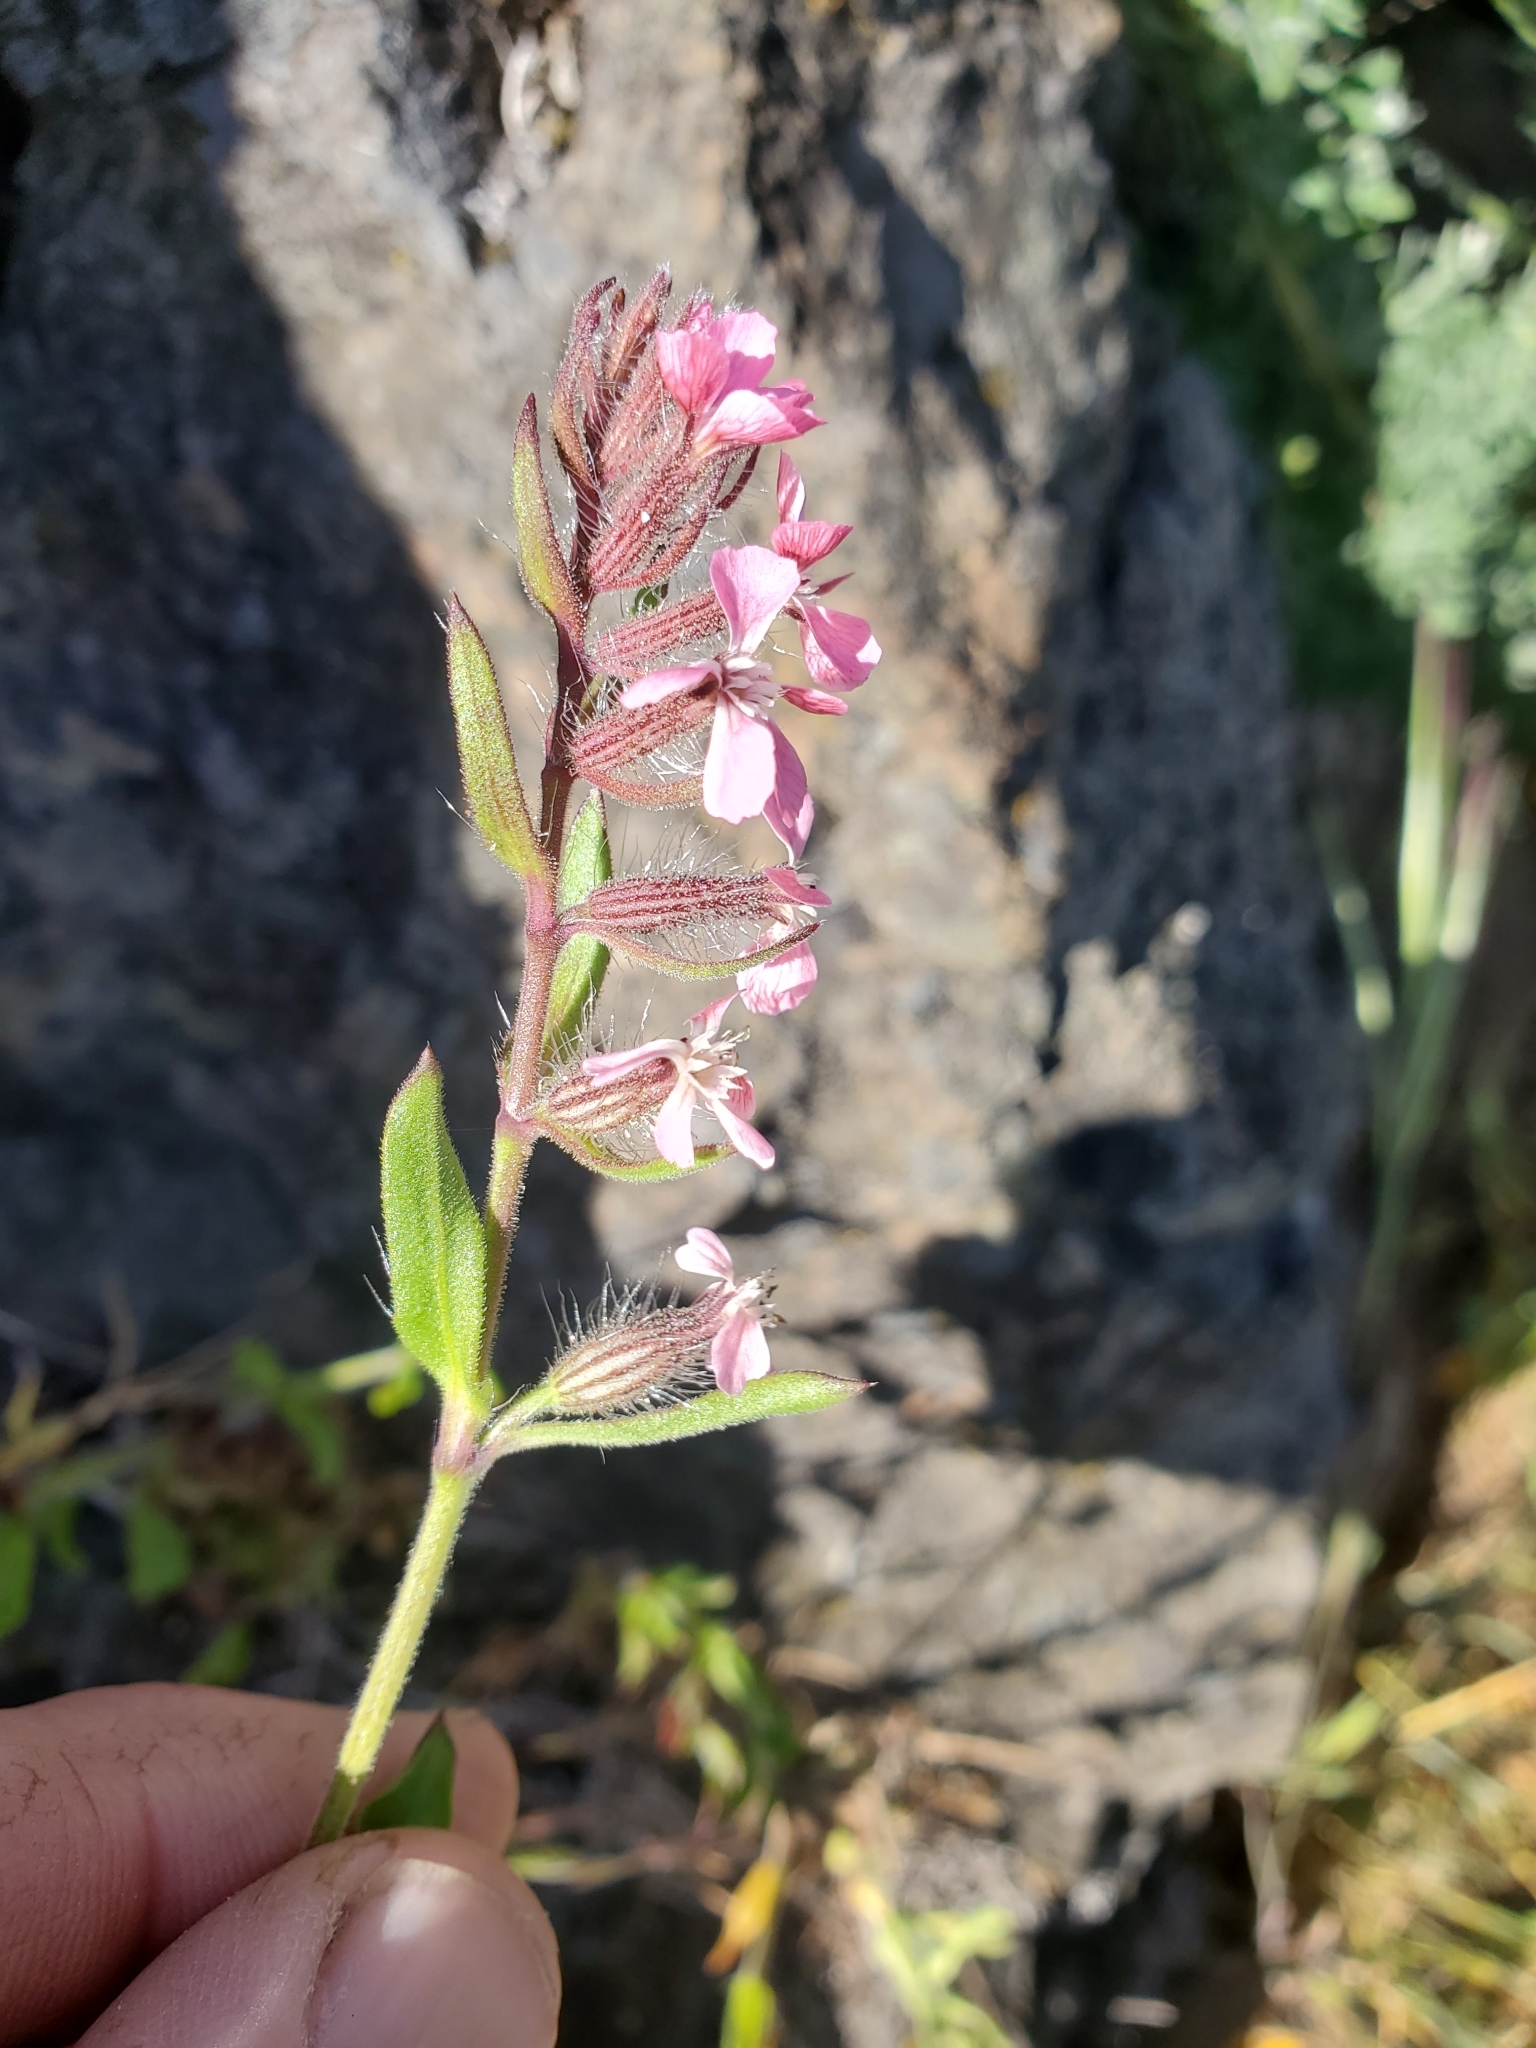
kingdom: Plantae
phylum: Tracheophyta
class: Magnoliopsida
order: Caryophyllales
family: Caryophyllaceae
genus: Silene
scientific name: Silene gallica
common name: Small-flowered catchfly
